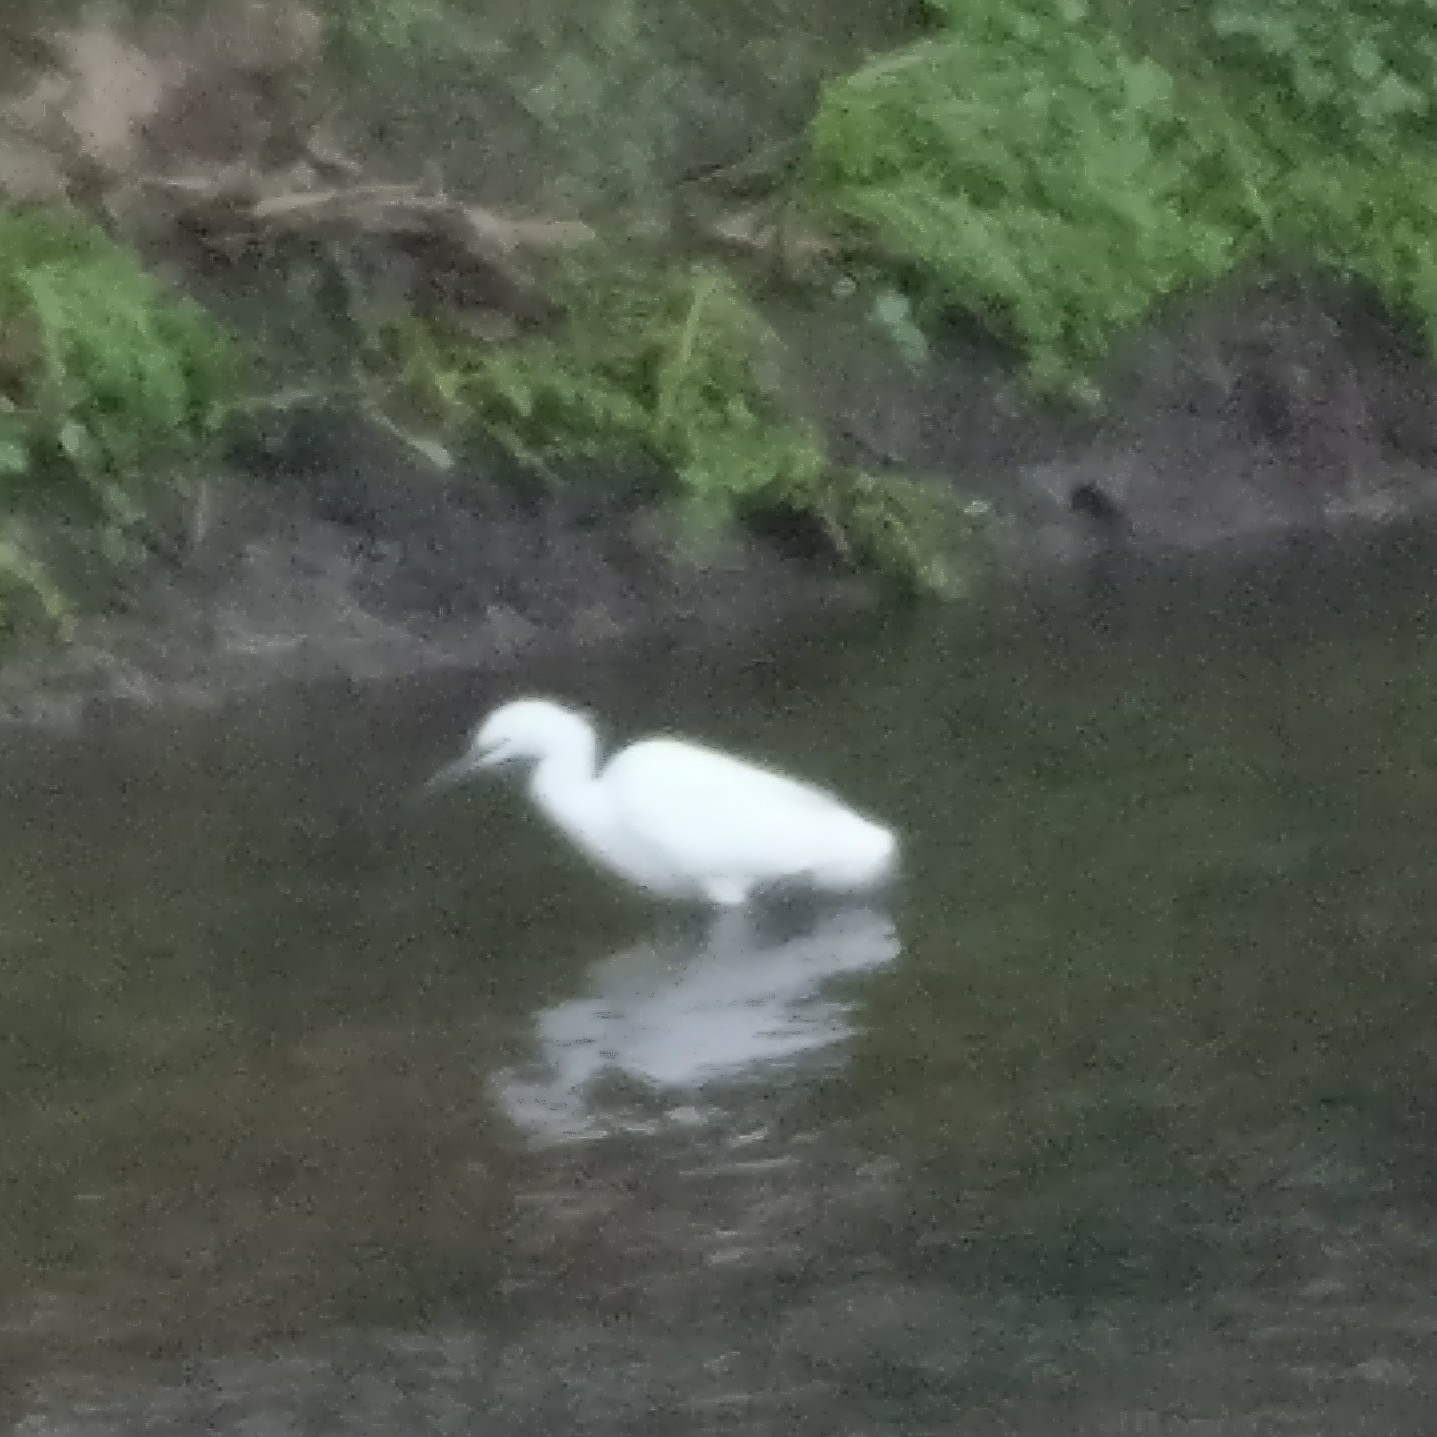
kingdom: Animalia
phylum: Chordata
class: Aves
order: Pelecaniformes
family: Ardeidae
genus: Egretta
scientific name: Egretta garzetta
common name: Little egret
